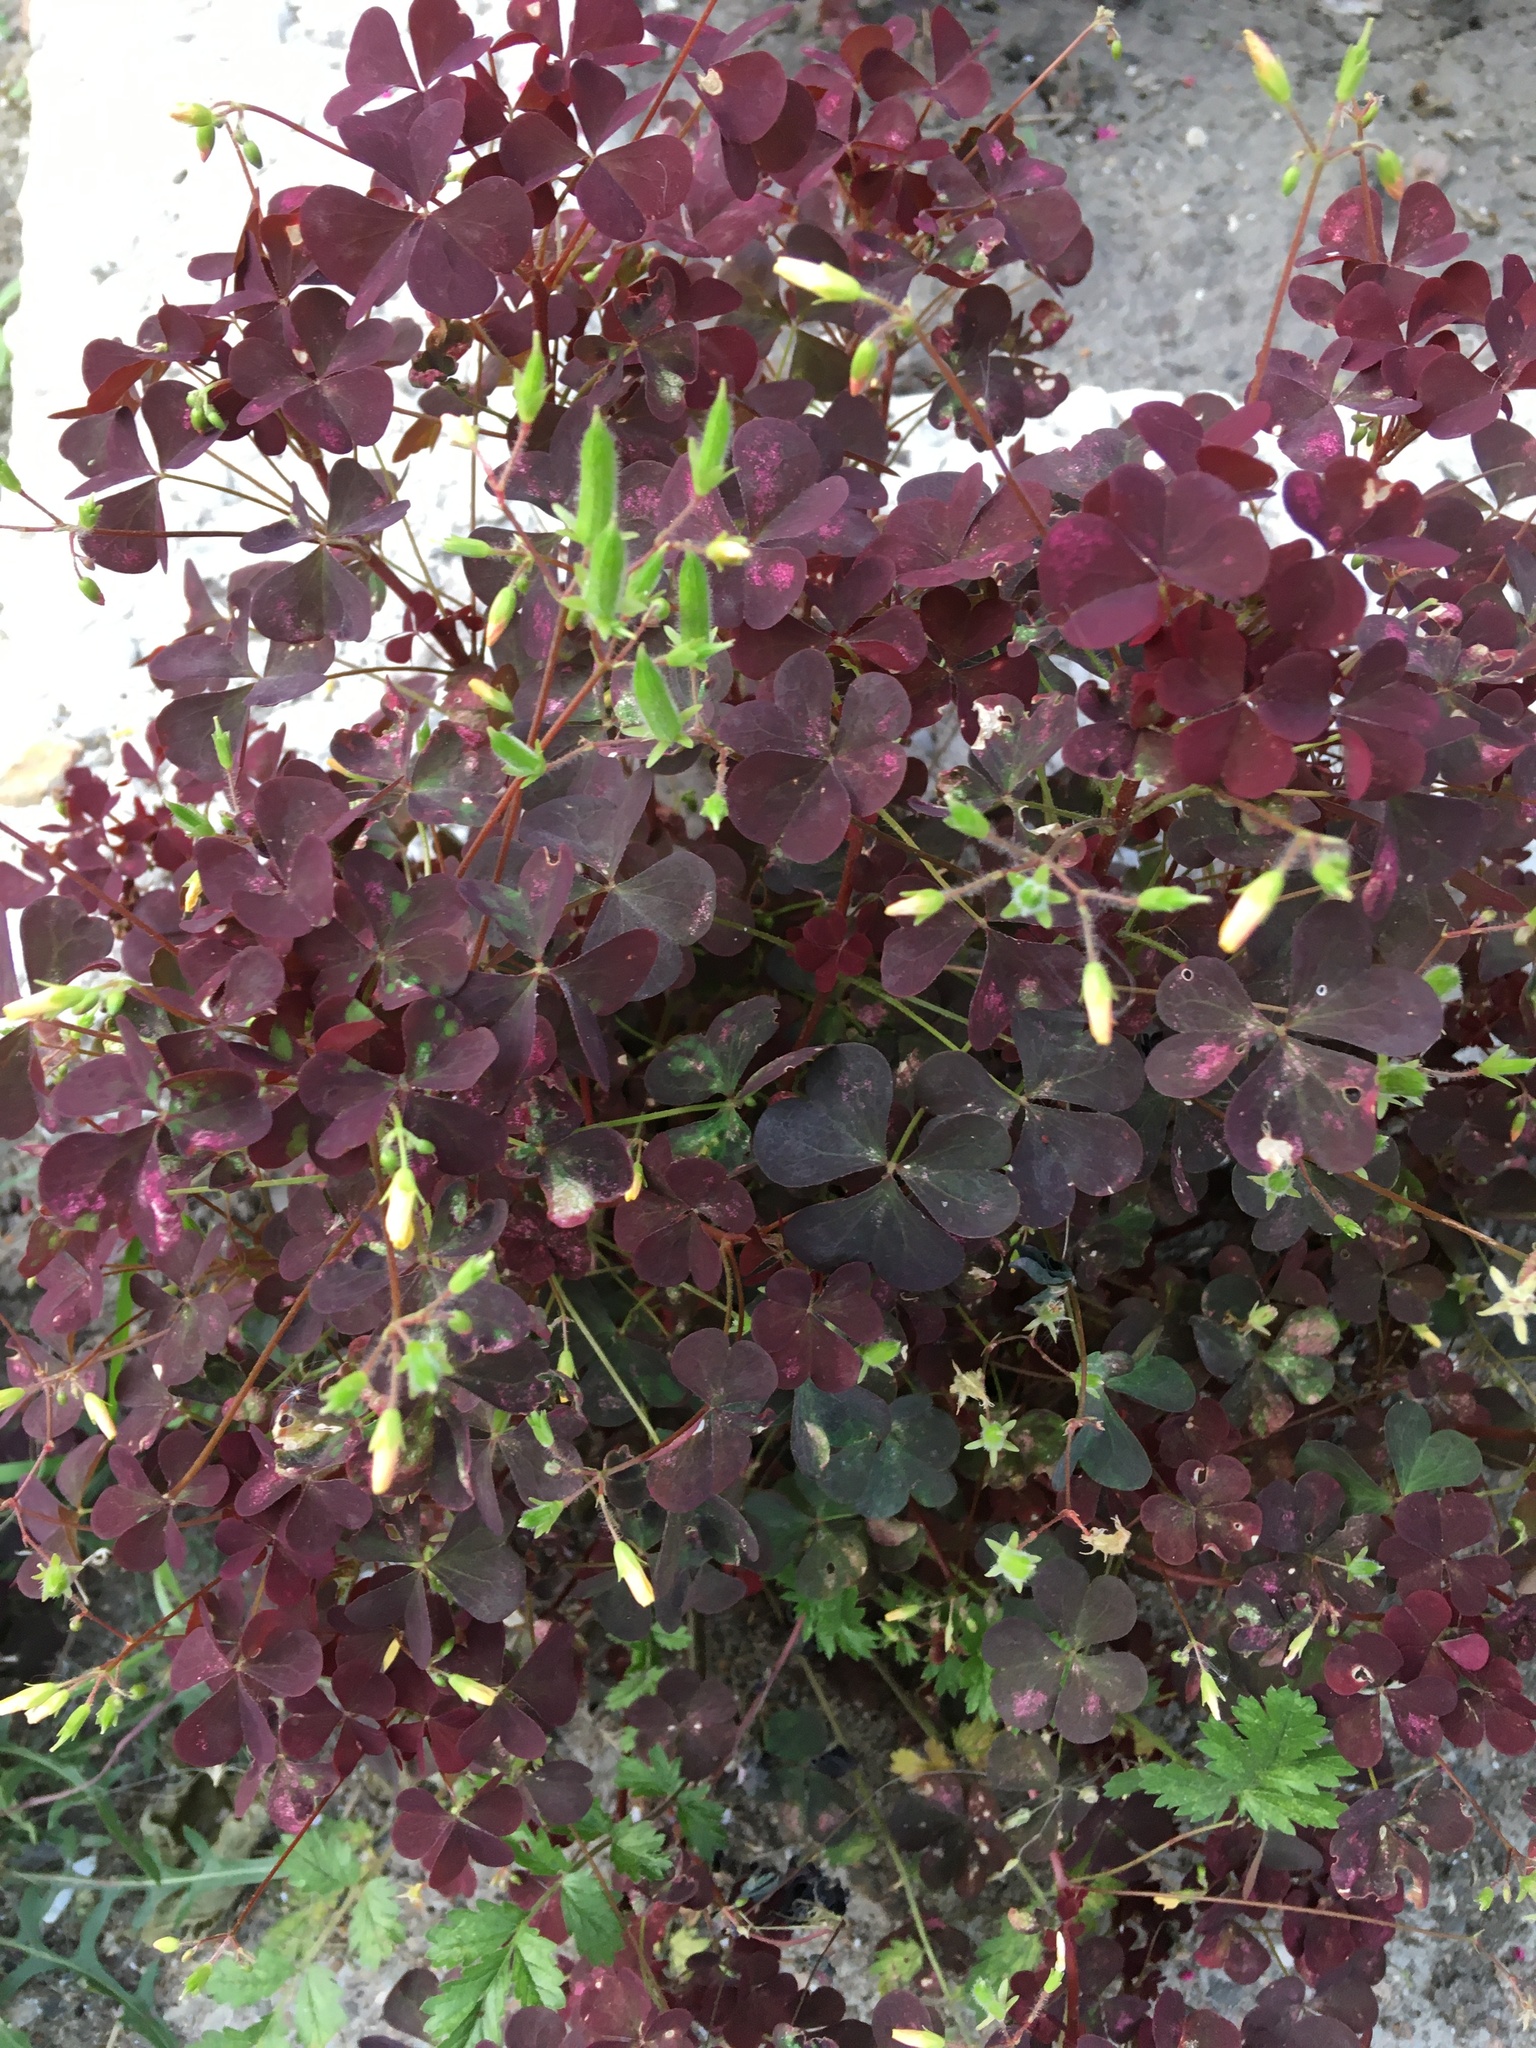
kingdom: Plantae
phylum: Tracheophyta
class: Magnoliopsida
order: Oxalidales
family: Oxalidaceae
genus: Oxalis
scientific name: Oxalis stricta
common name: Upright yellow-sorrel
